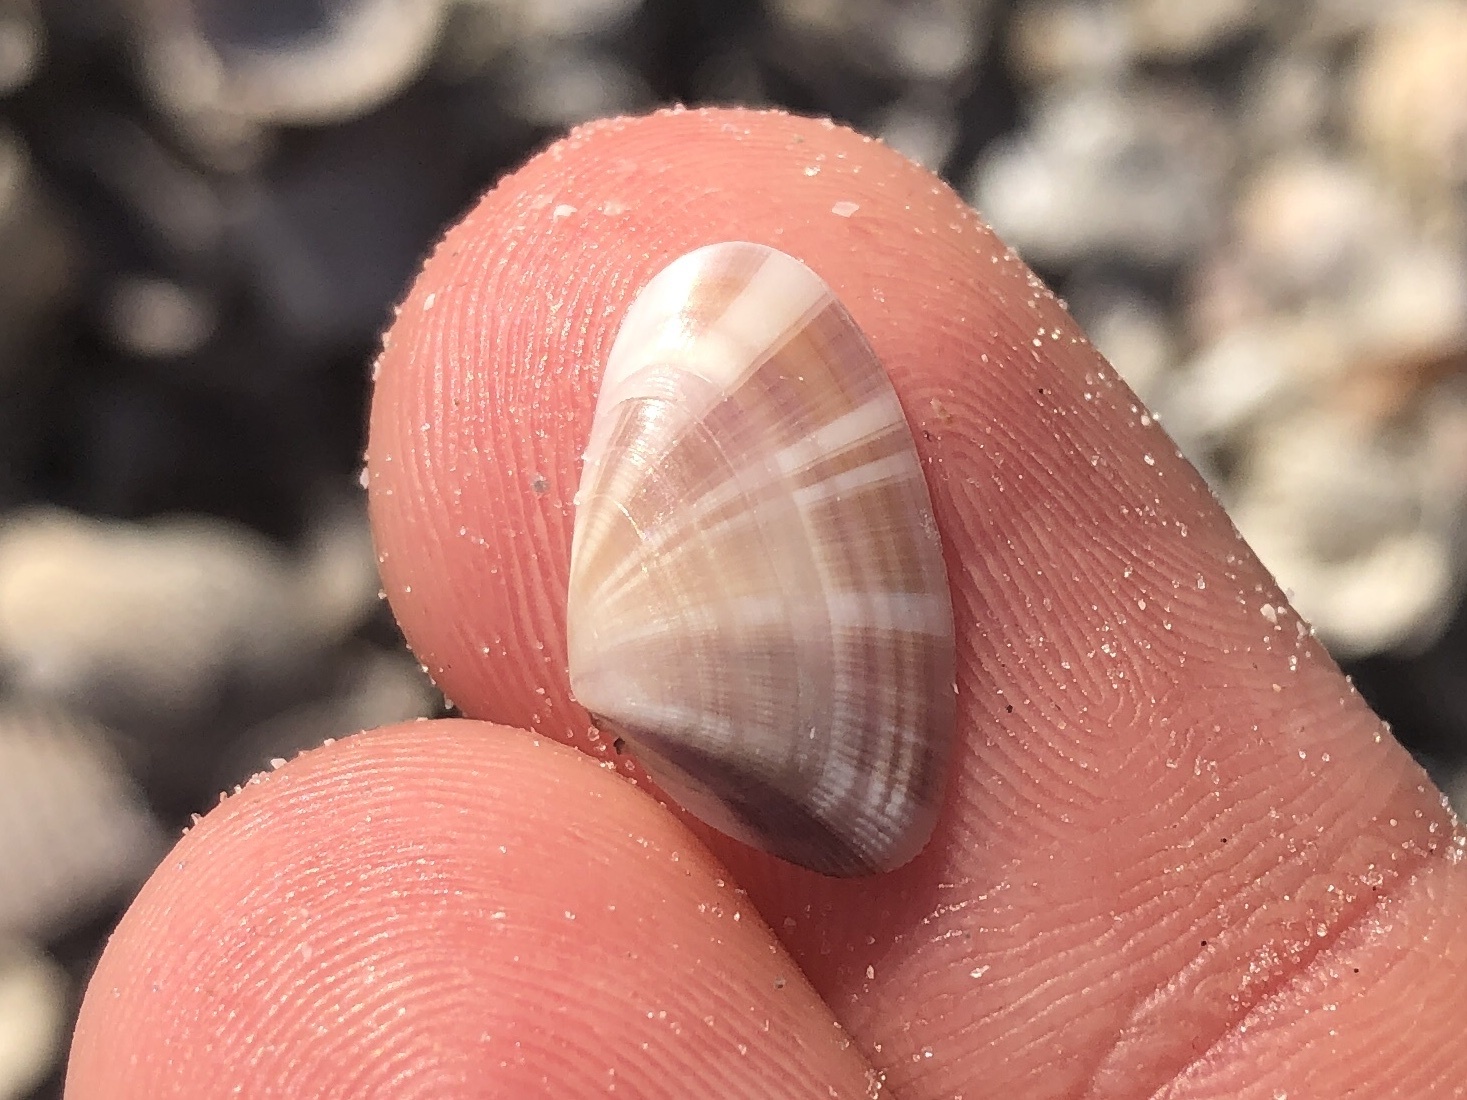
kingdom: Animalia
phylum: Mollusca
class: Bivalvia
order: Cardiida
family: Donacidae
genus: Donax
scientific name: Donax variabilis
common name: Butterfly shell
